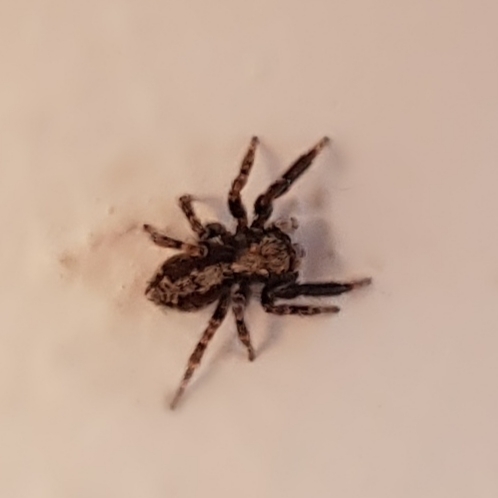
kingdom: Animalia
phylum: Arthropoda
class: Arachnida
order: Araneae
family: Salticidae
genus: Pseudeuophrys
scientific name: Pseudeuophrys lanigera
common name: Jumping spider
